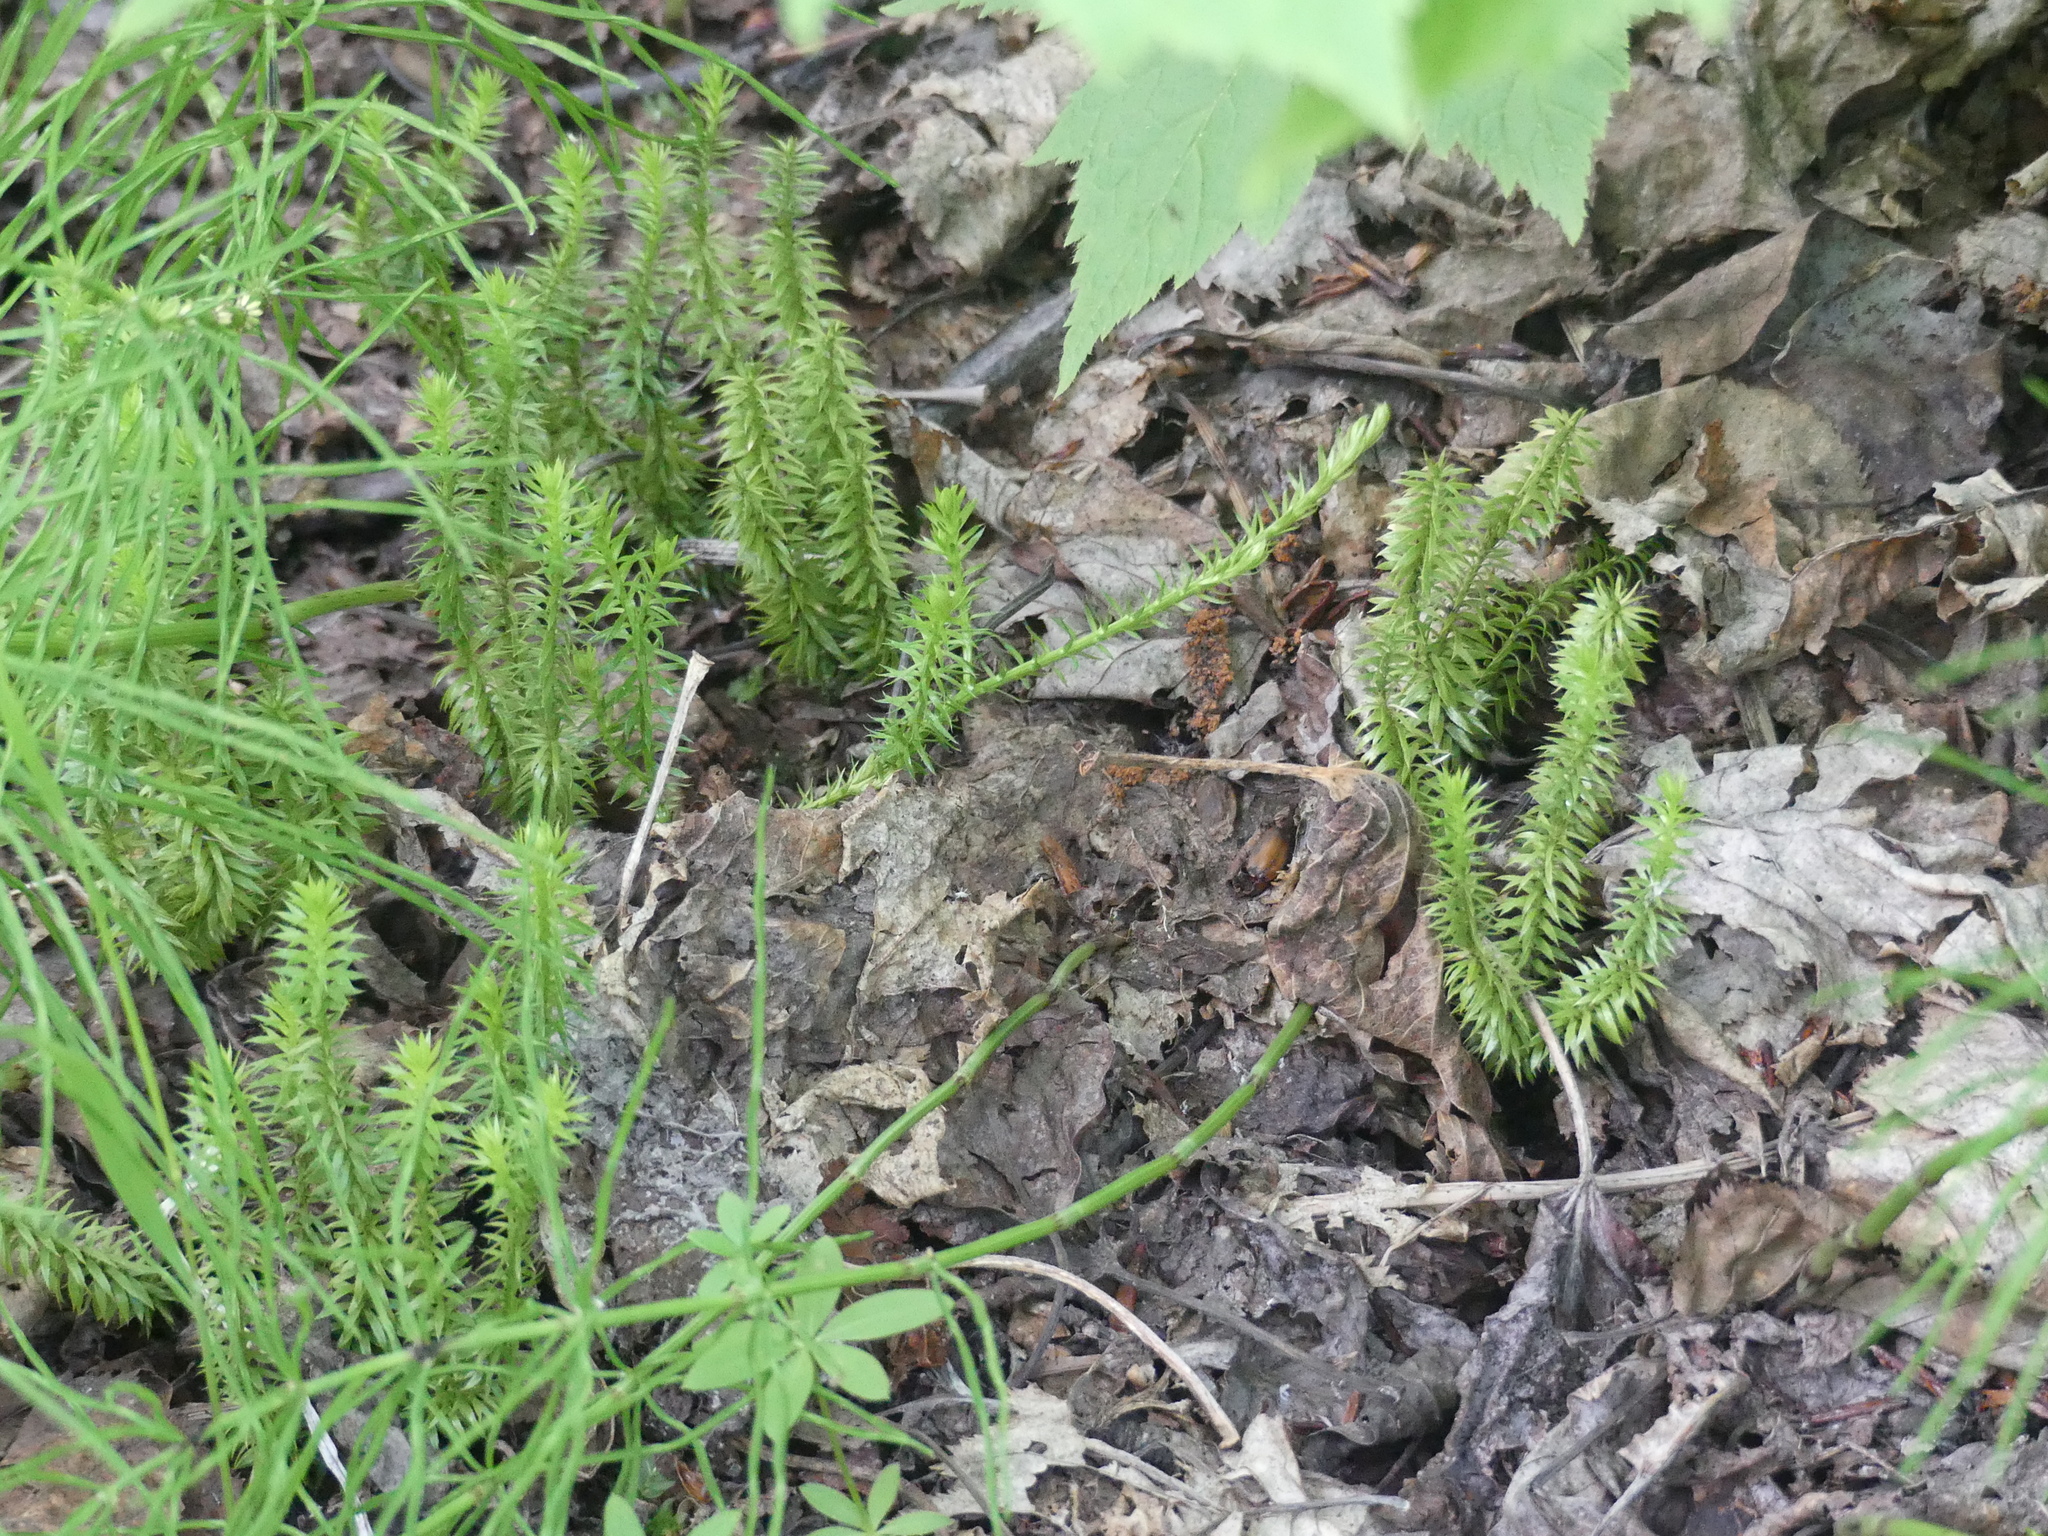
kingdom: Plantae
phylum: Tracheophyta
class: Lycopodiopsida
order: Lycopodiales
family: Lycopodiaceae
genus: Spinulum
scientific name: Spinulum annotinum
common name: Interrupted club-moss
